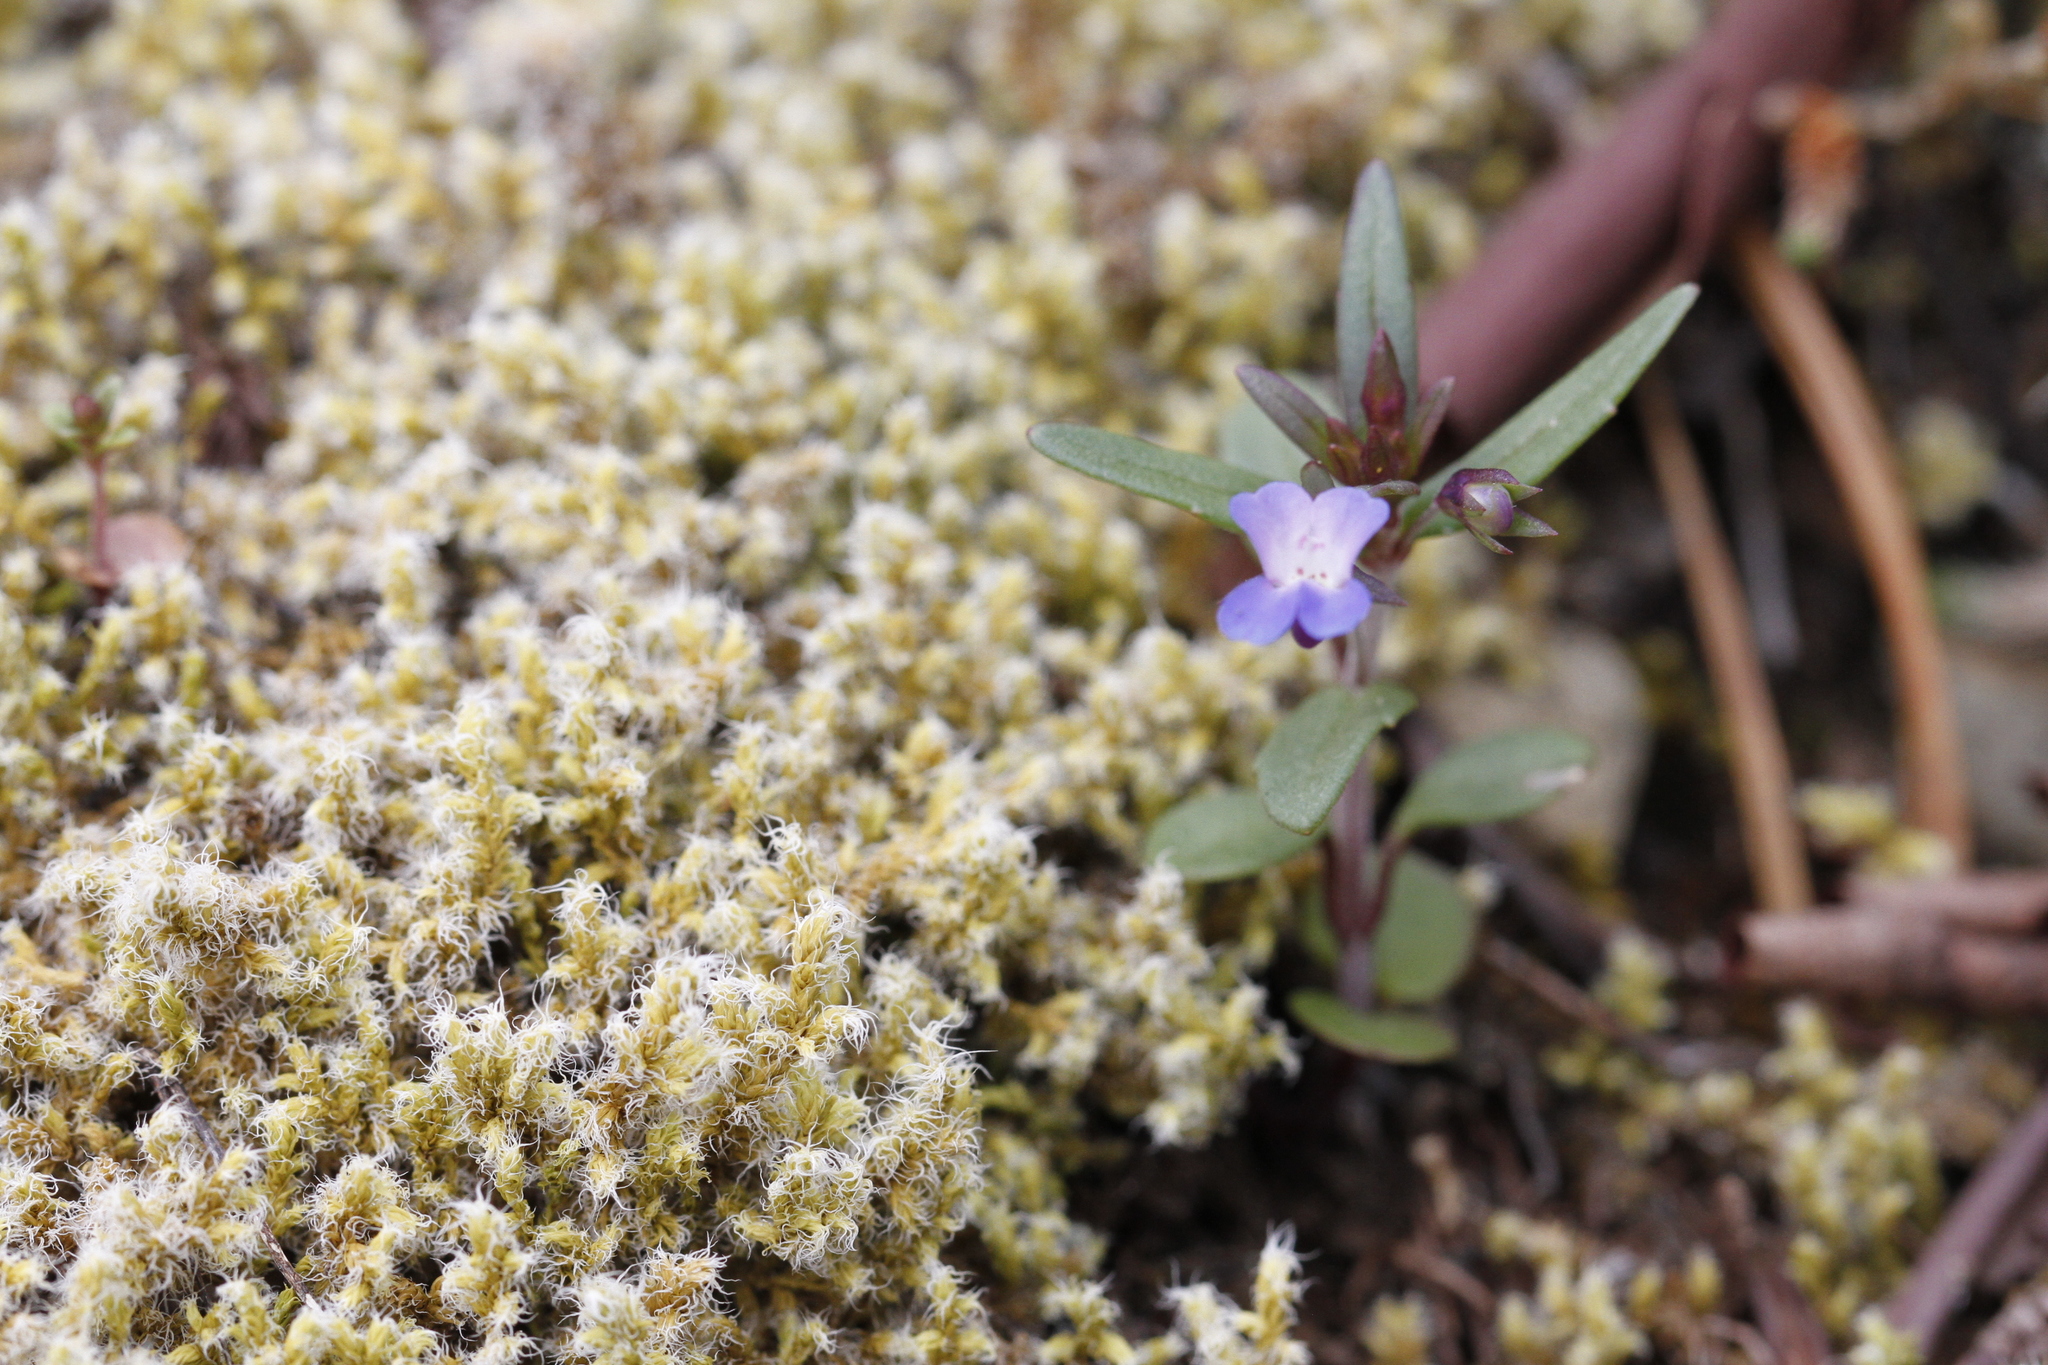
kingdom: Plantae
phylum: Tracheophyta
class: Magnoliopsida
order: Lamiales
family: Plantaginaceae
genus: Collinsia
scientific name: Collinsia parviflora
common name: Blue-lips
